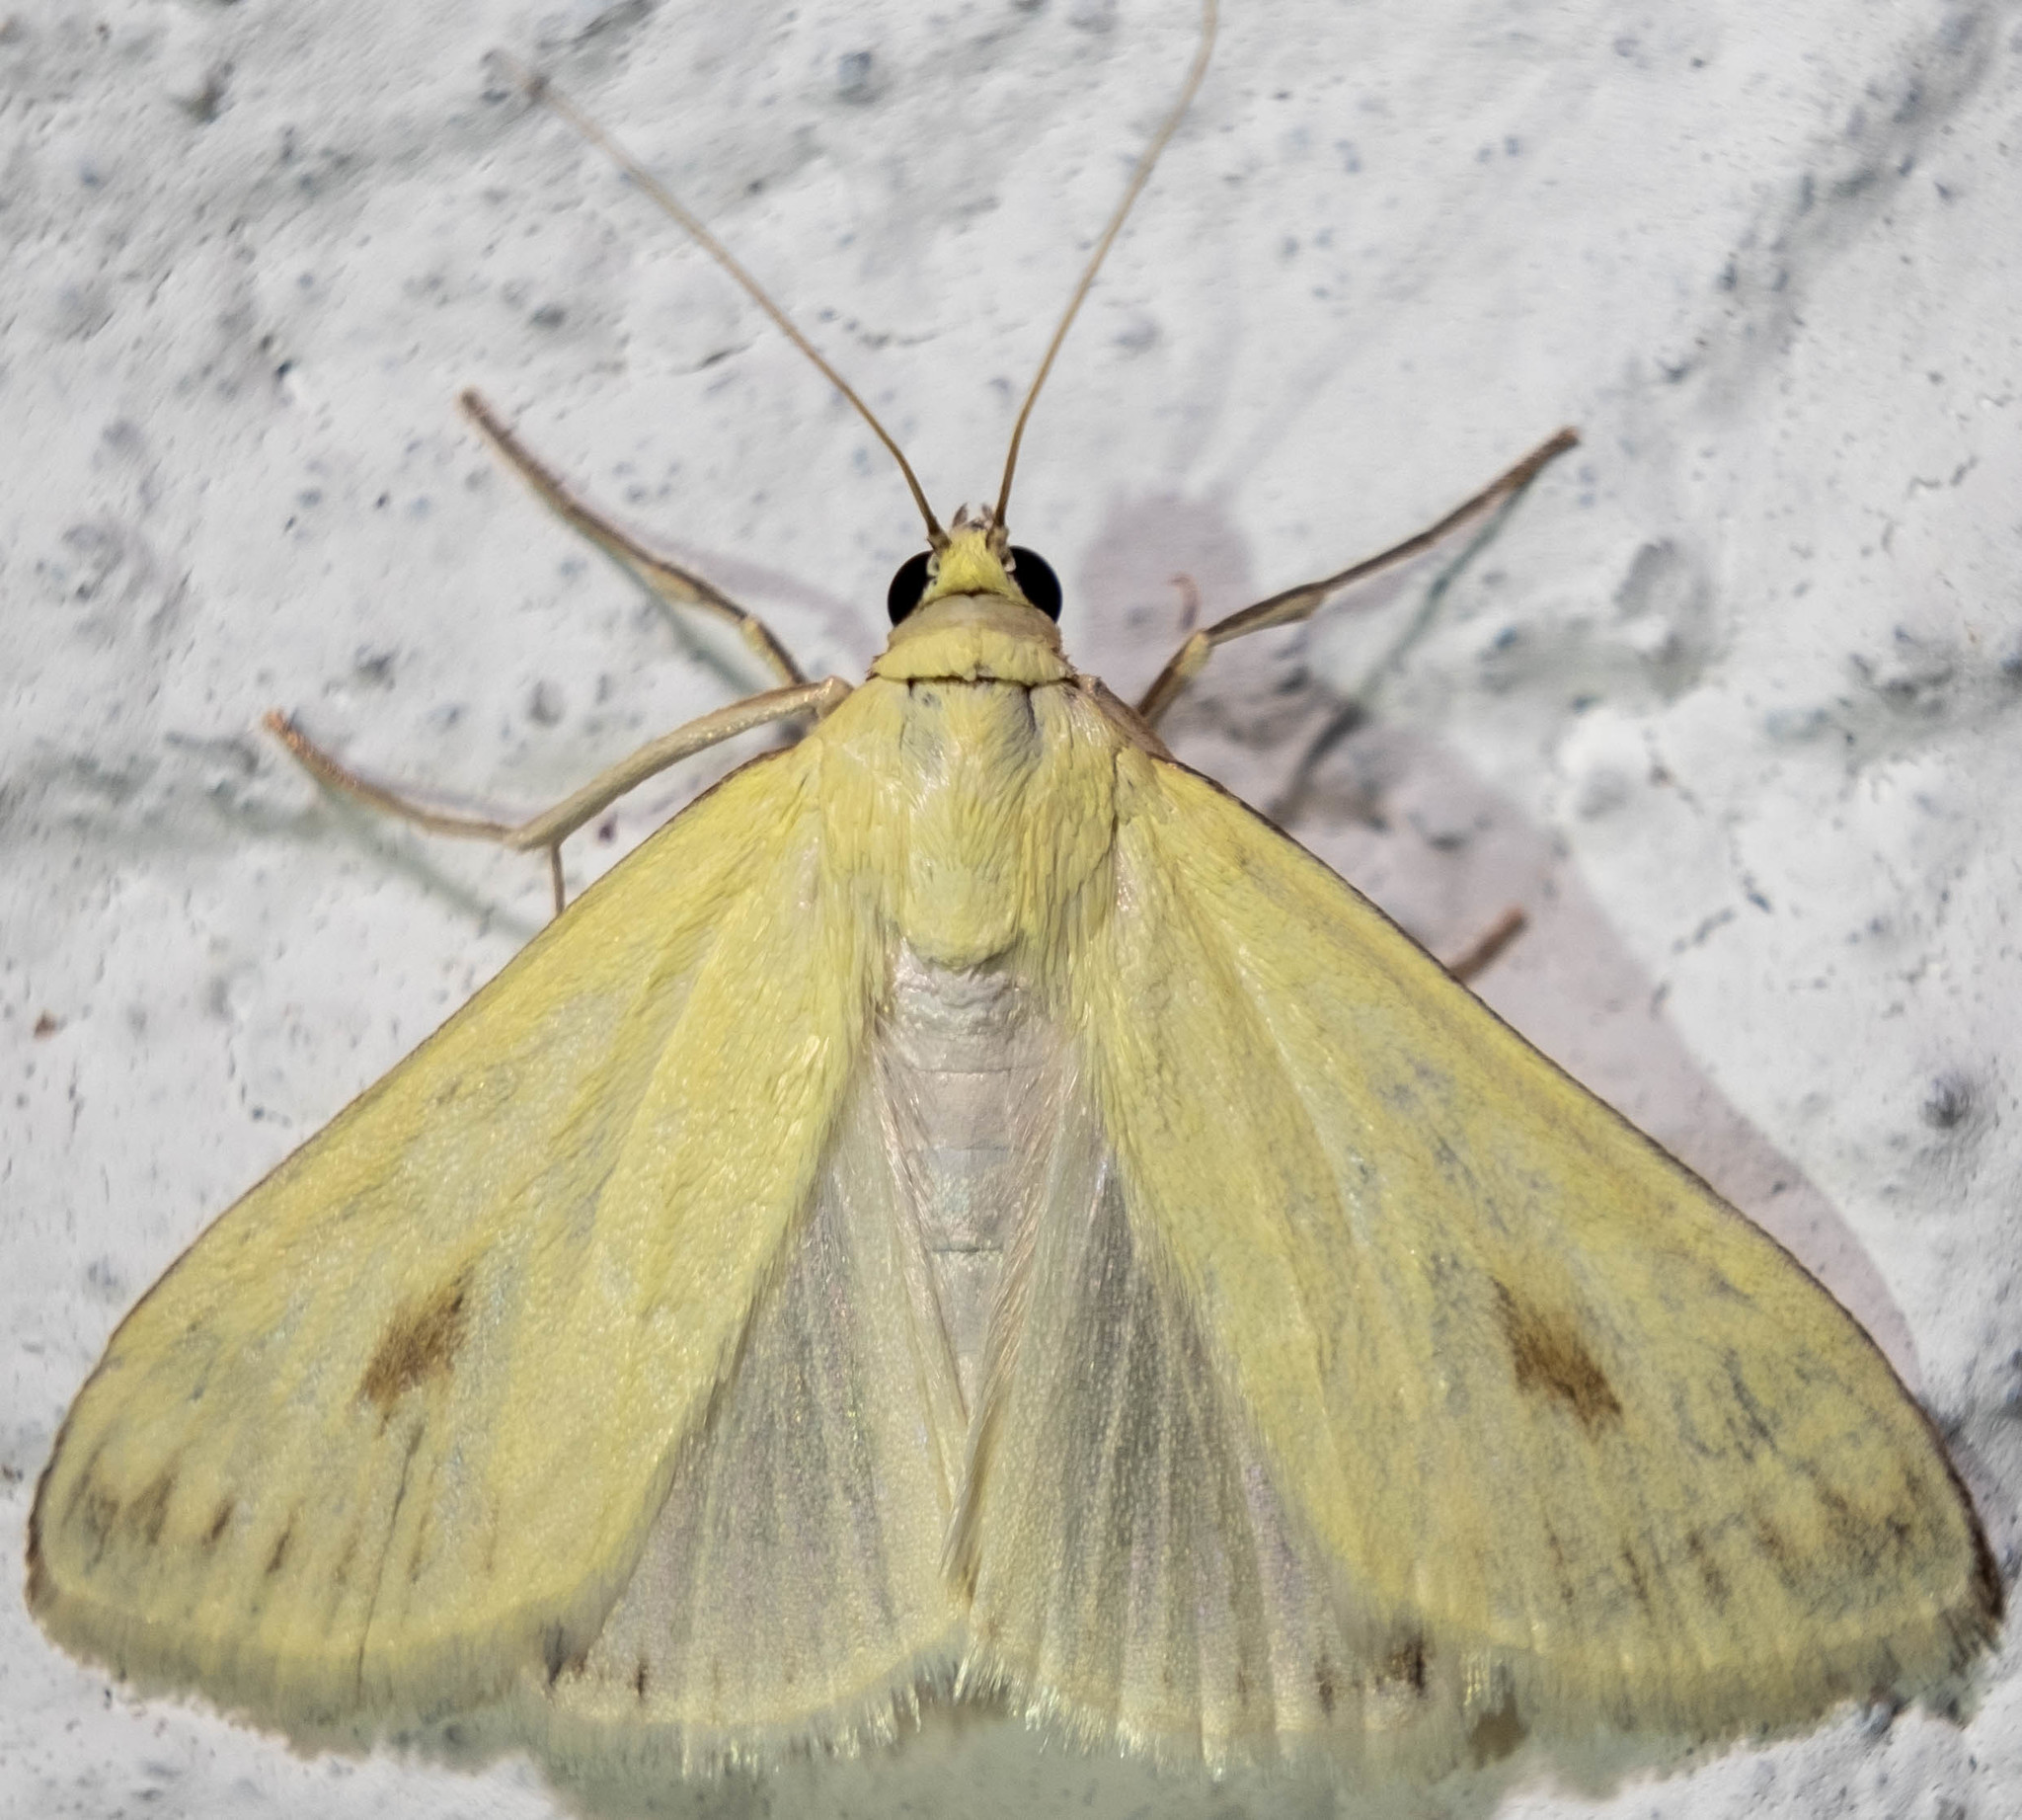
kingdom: Animalia
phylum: Arthropoda
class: Insecta
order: Lepidoptera
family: Crambidae
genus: Sitochroa
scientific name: Sitochroa palealis
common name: Greenish-yellow sitochroa moth
